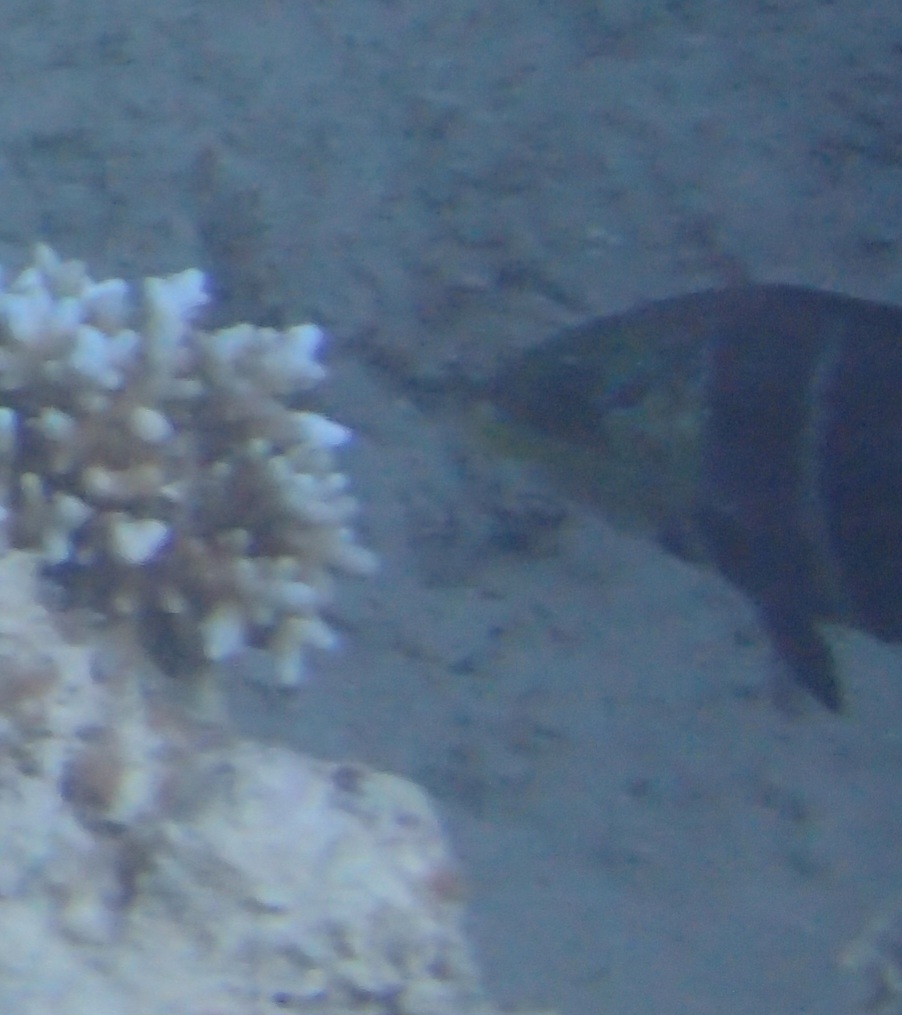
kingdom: Animalia
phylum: Chordata
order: Perciformes
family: Labridae
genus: Hemigymnus
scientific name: Hemigymnus fasciatus
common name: Barred thicklip
